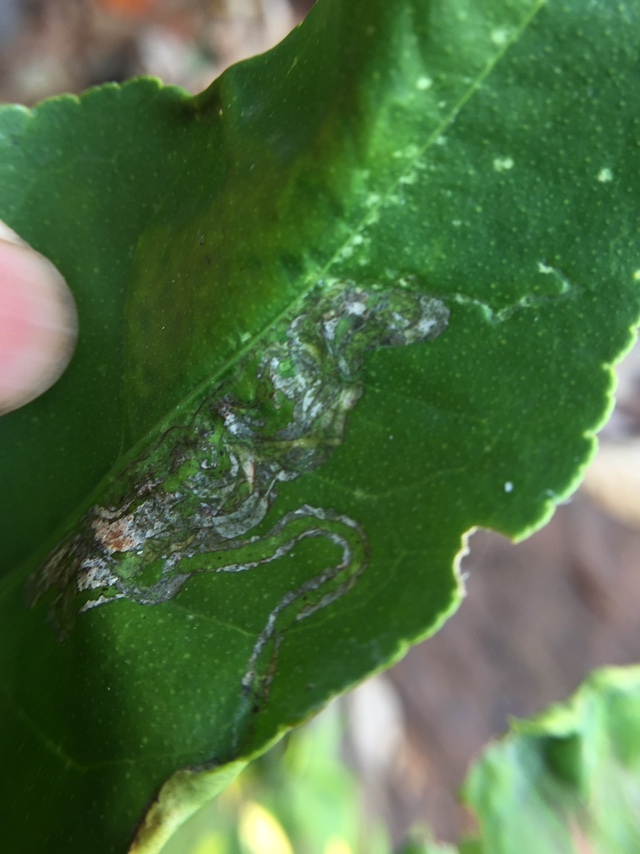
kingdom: Animalia
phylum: Arthropoda
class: Insecta
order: Lepidoptera
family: Gracillariidae
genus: Phyllocnistis
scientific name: Phyllocnistis citrella
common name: Citrus leafminer
